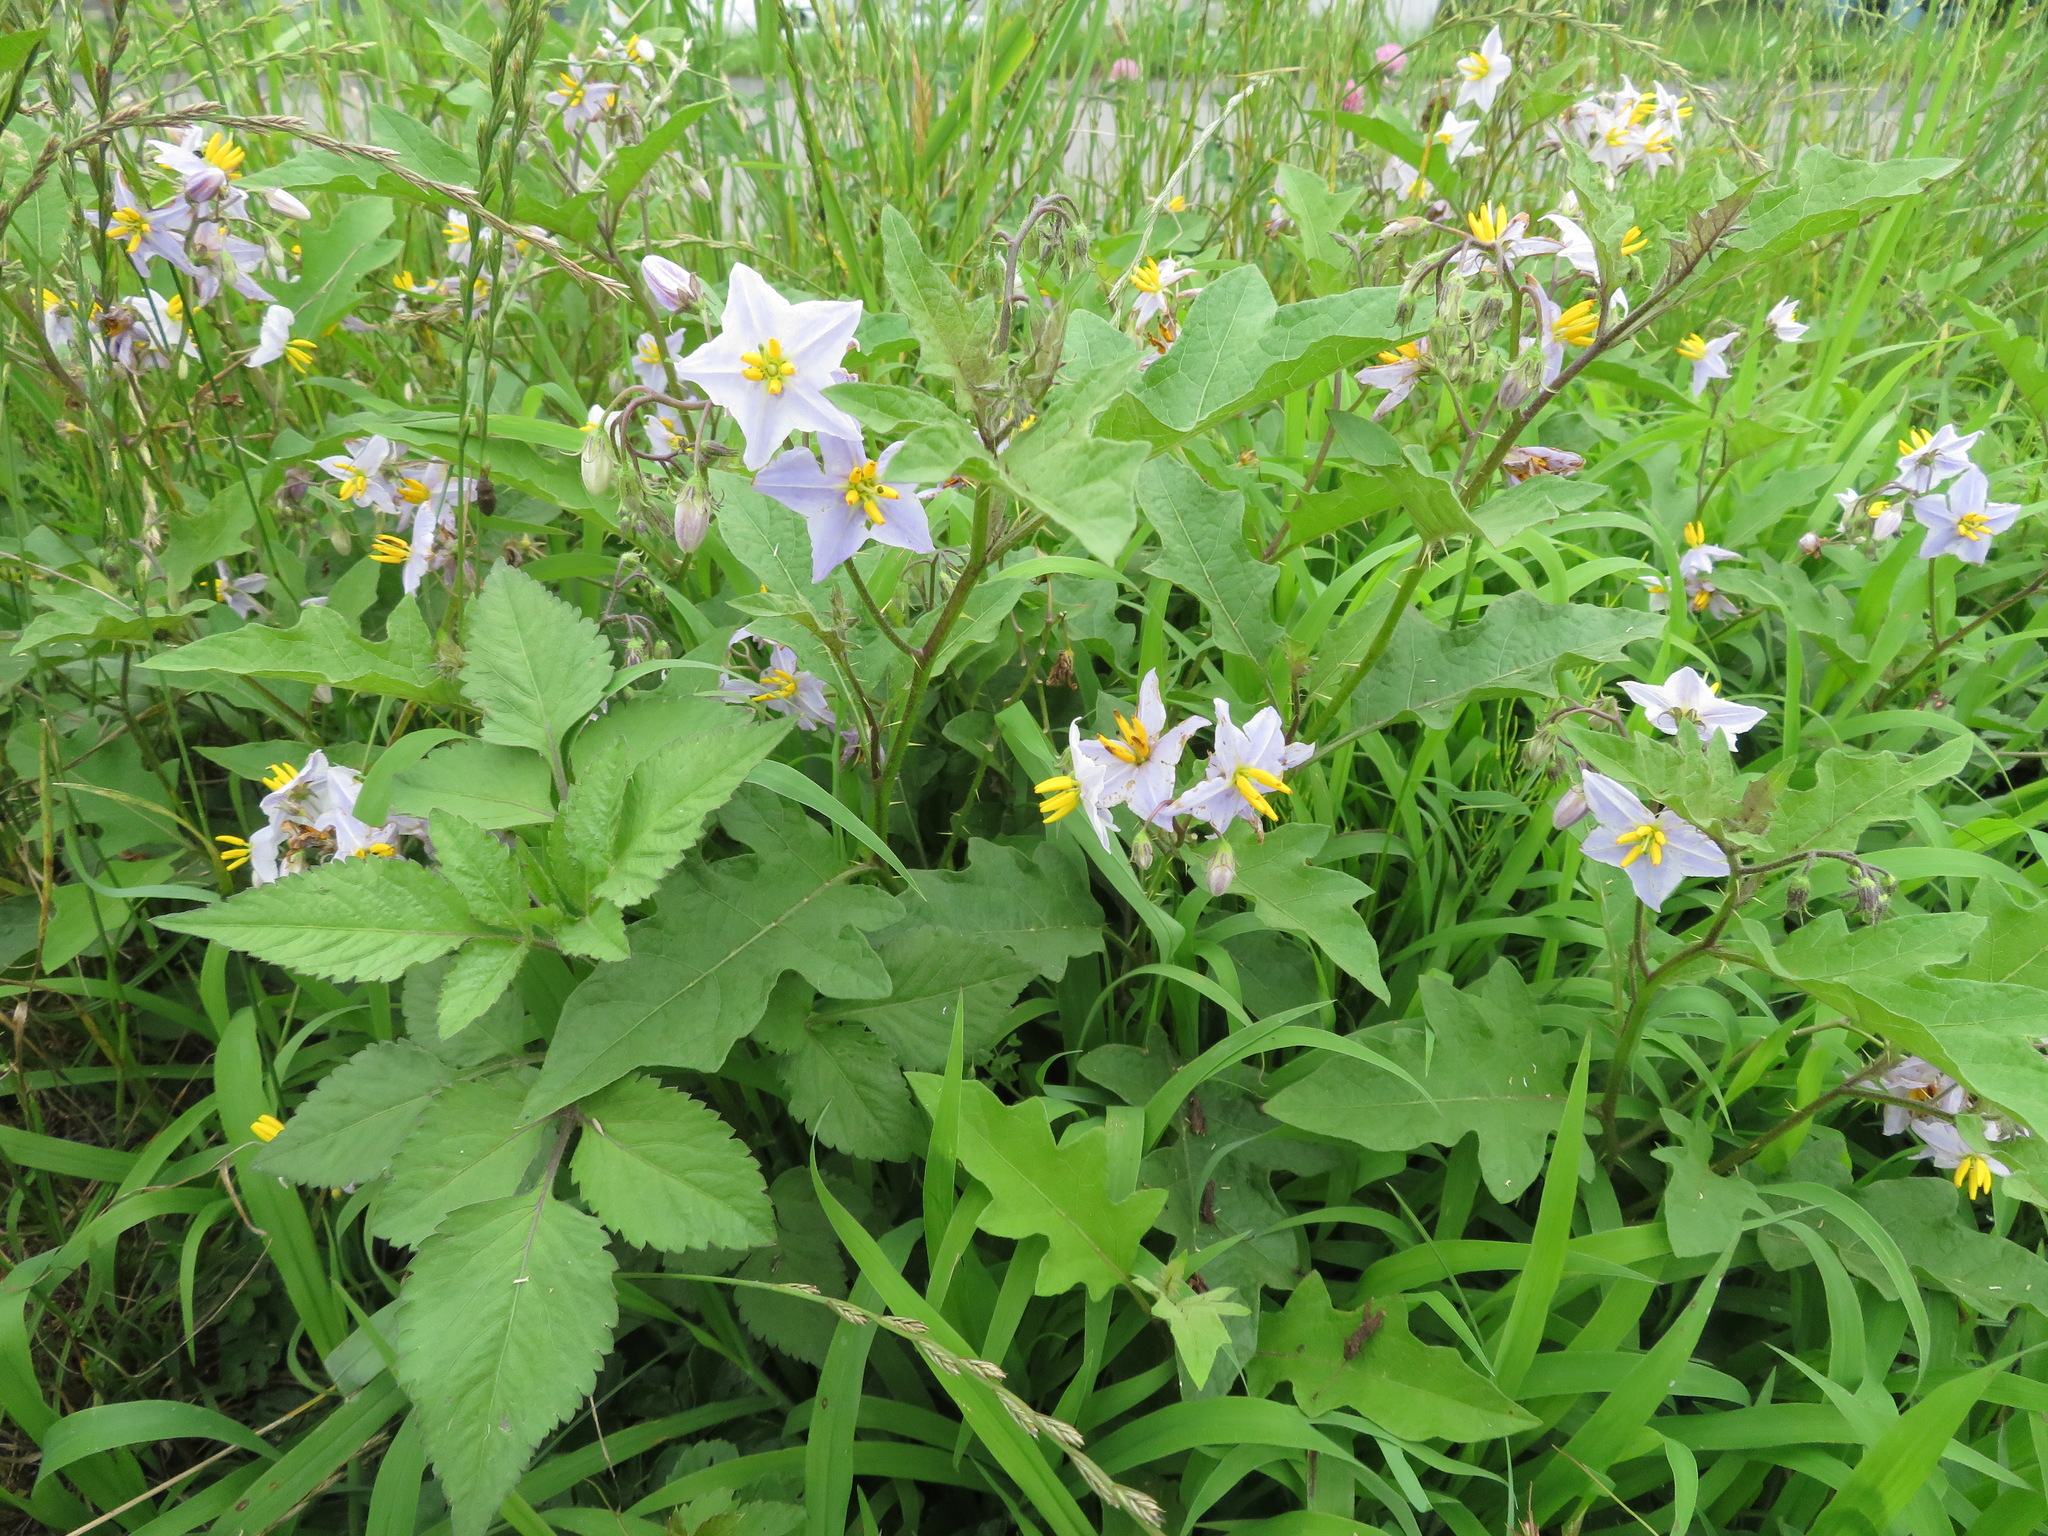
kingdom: Plantae
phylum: Tracheophyta
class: Magnoliopsida
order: Solanales
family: Solanaceae
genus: Solanum
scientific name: Solanum carolinense
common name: Horse-nettle
